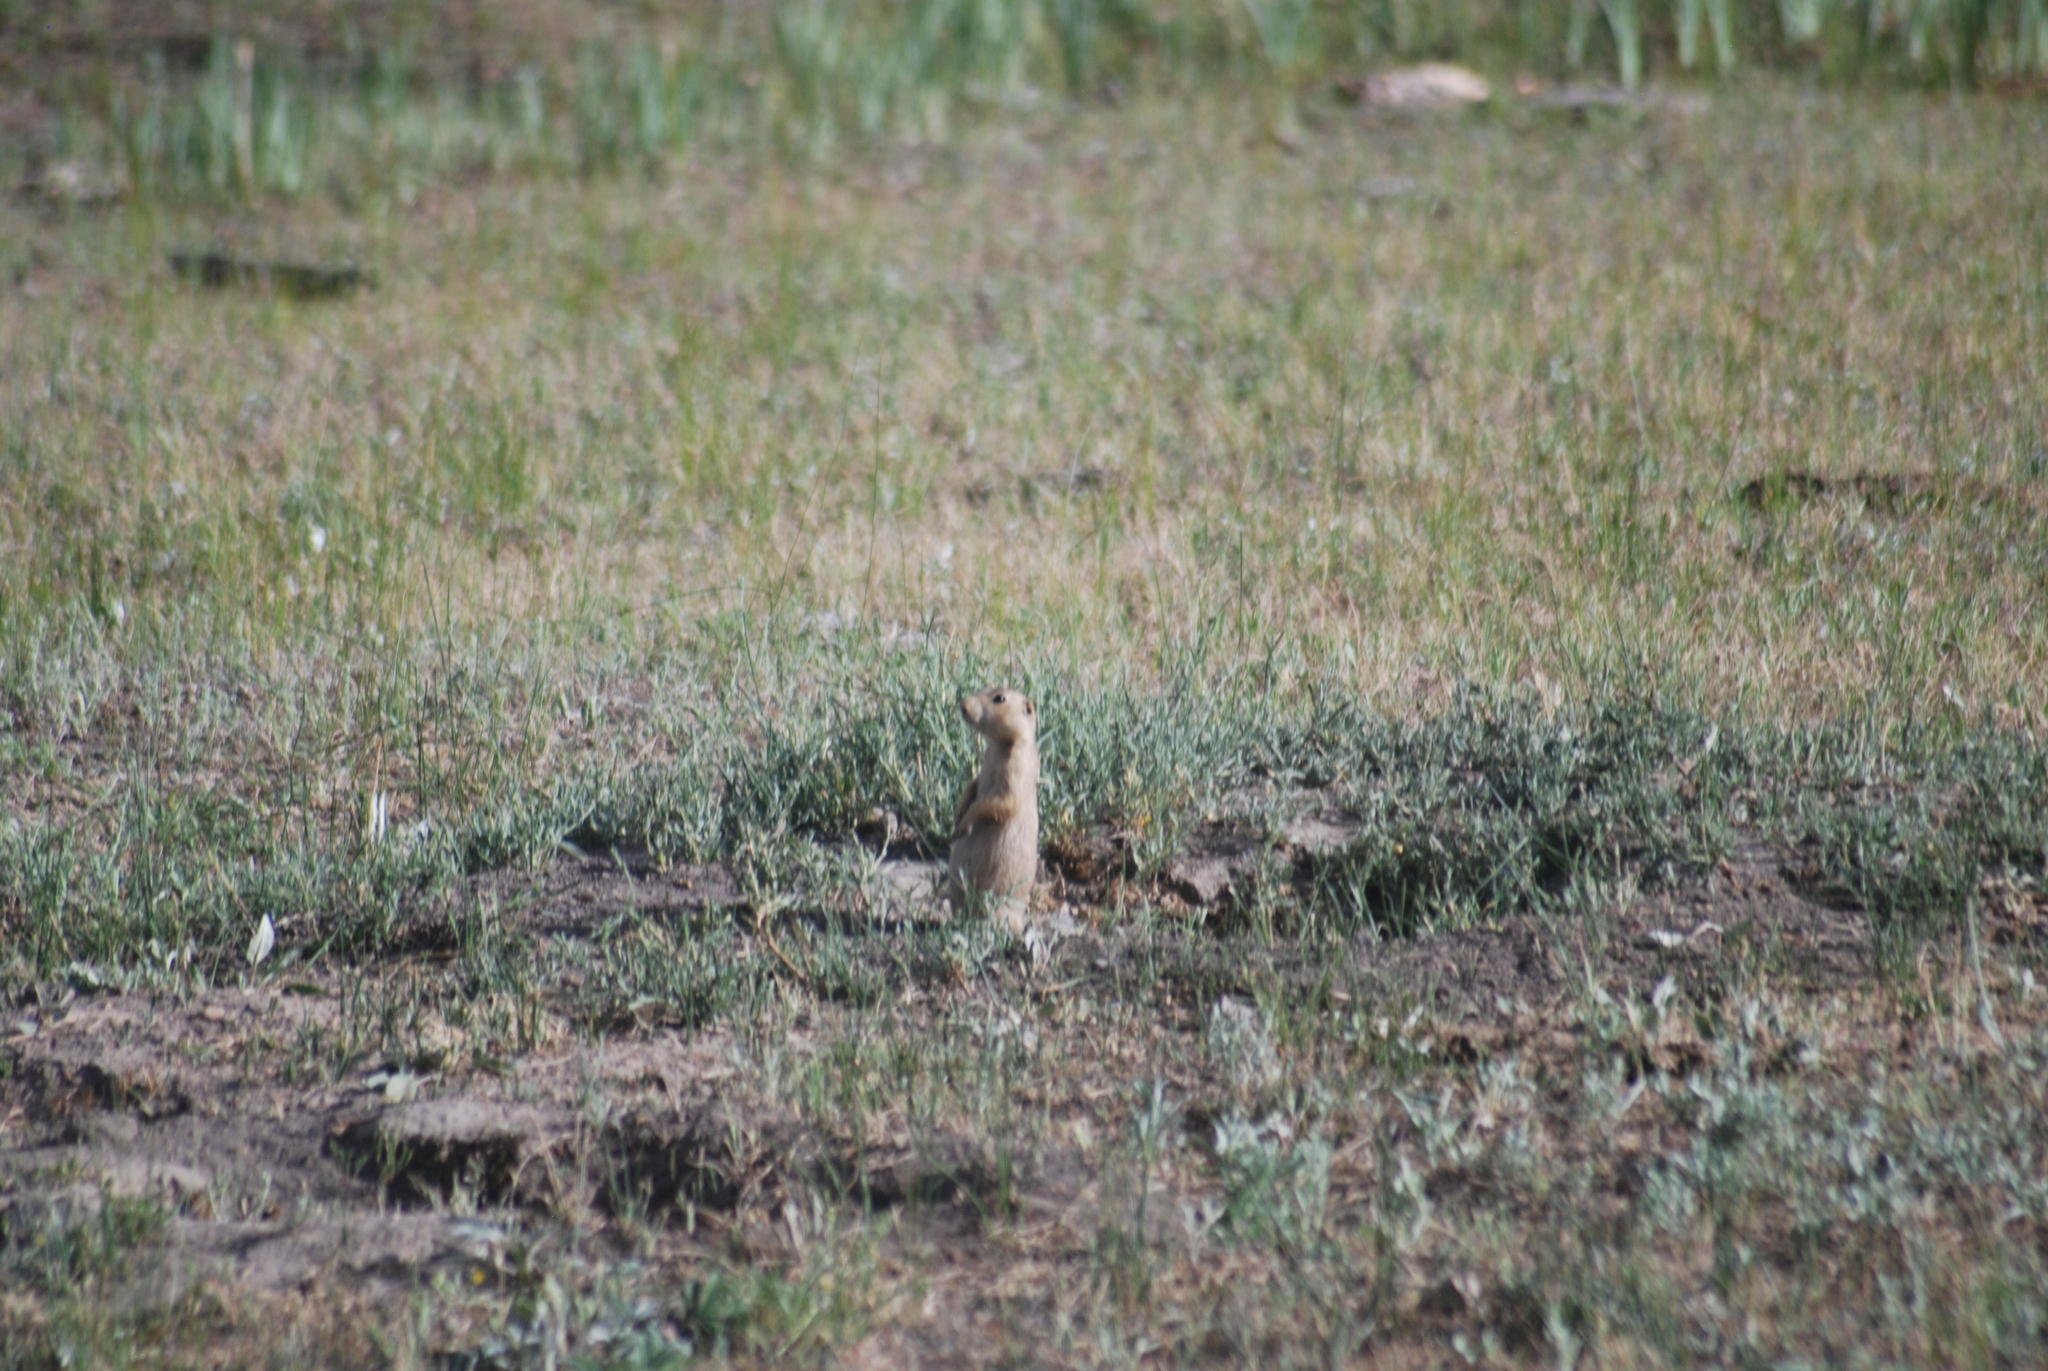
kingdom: Animalia
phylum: Chordata
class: Mammalia
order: Rodentia
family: Sciuridae
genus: Cynomys
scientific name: Cynomys gunnisoni
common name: Gunnison's prairie dog
